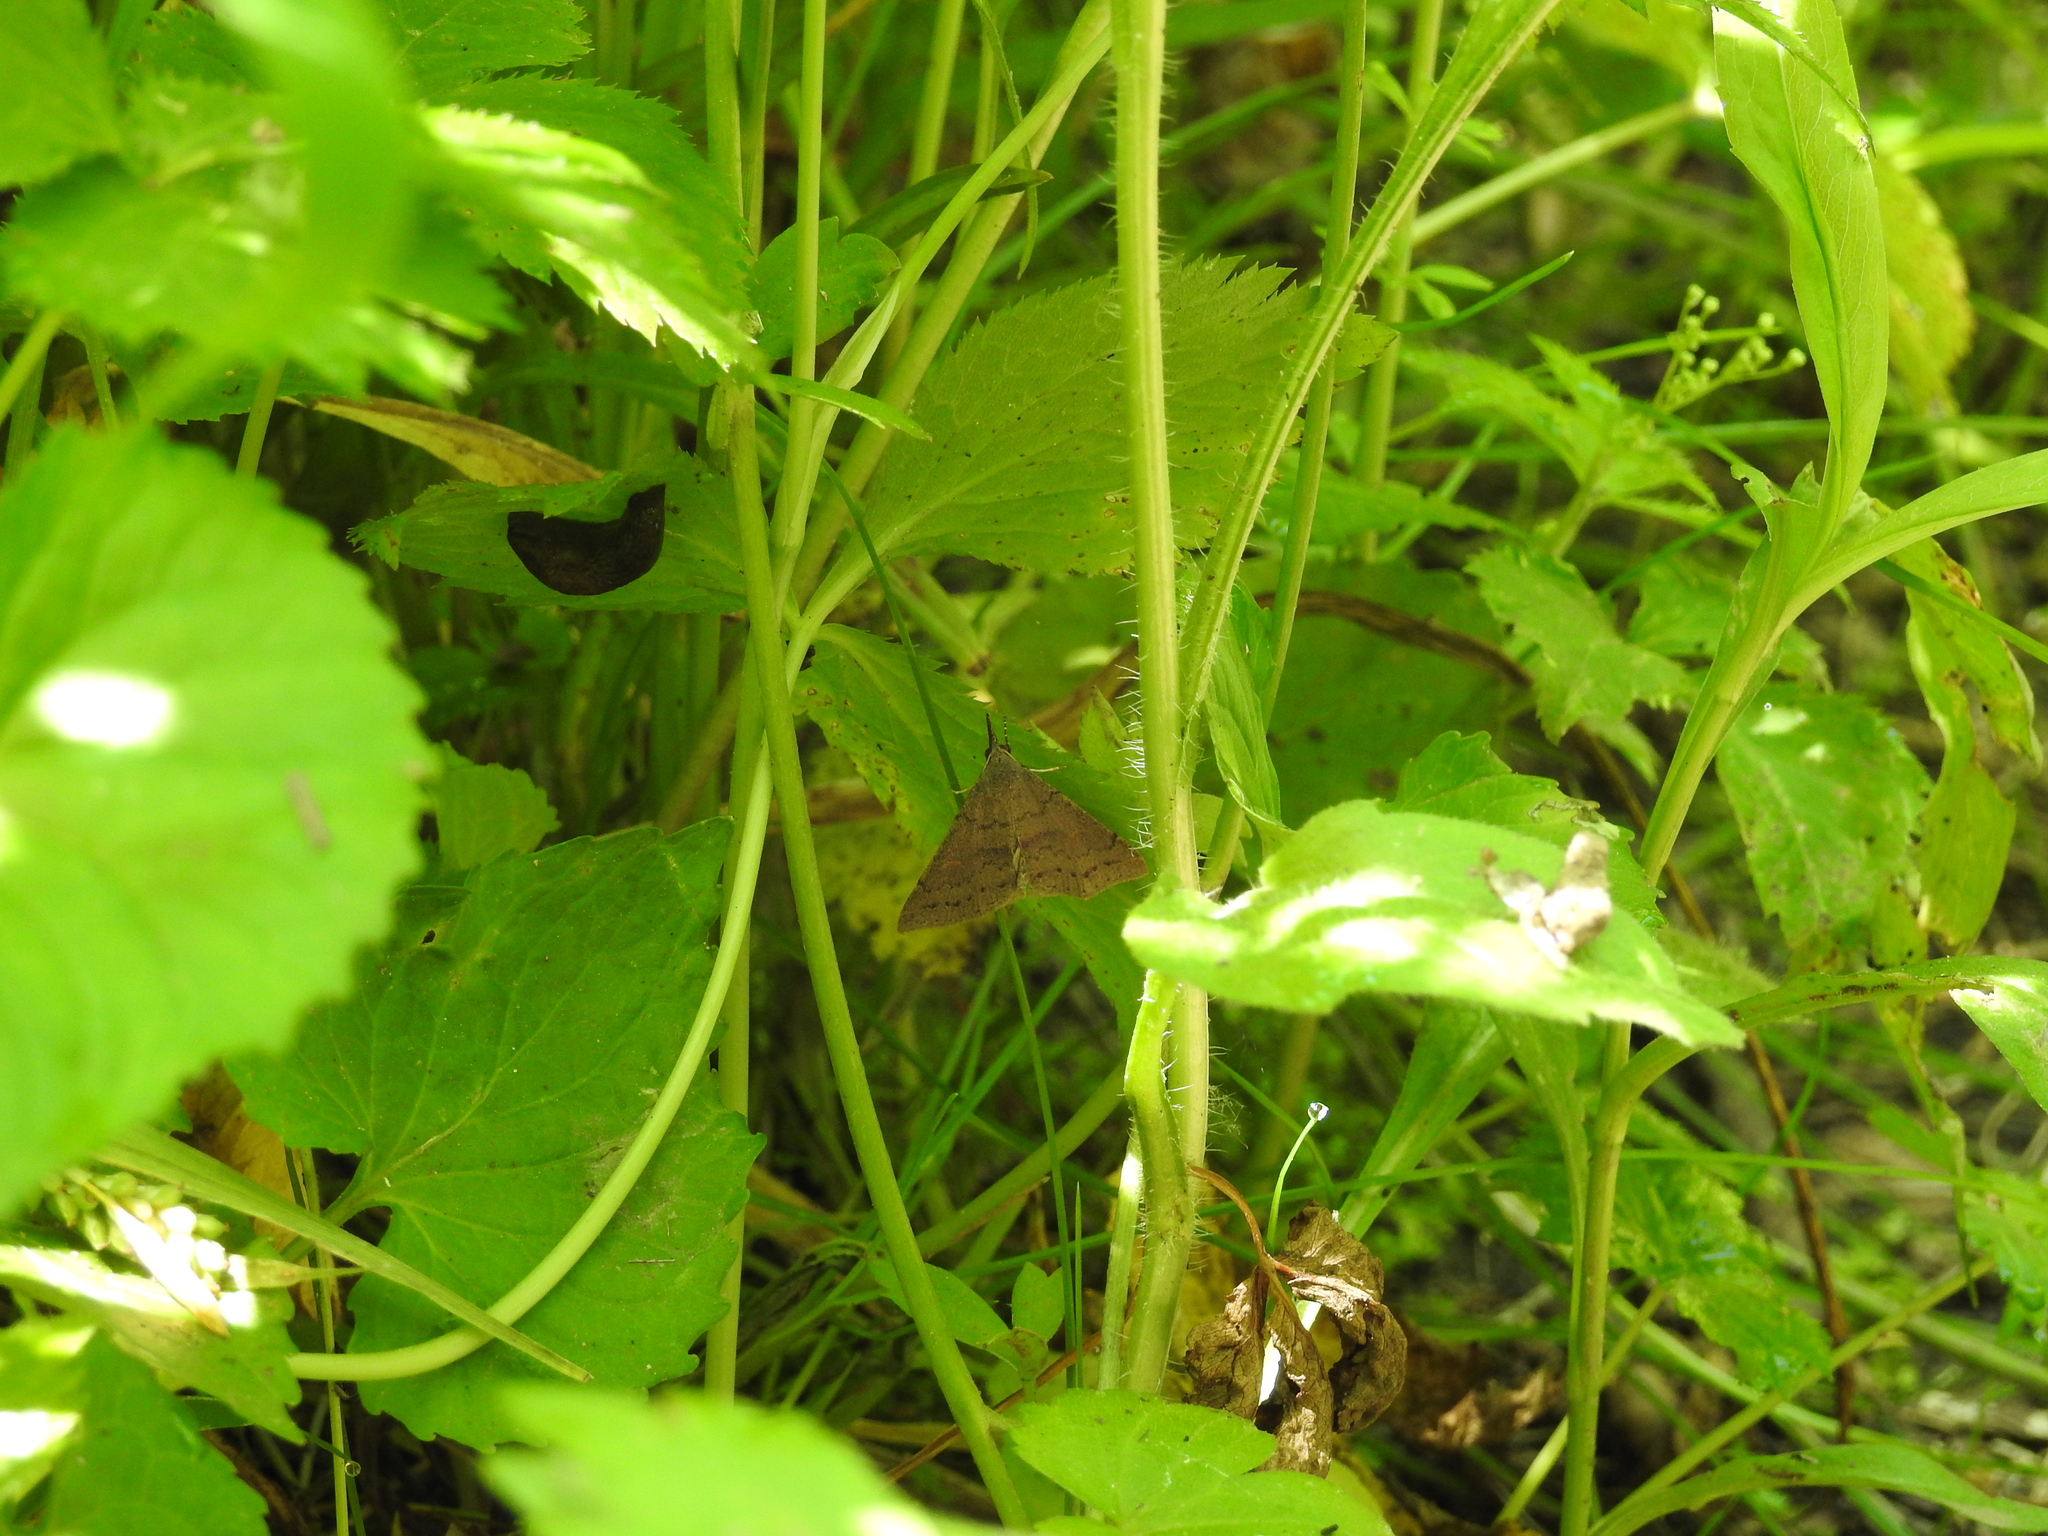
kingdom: Animalia
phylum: Arthropoda
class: Insecta
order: Lepidoptera
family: Erebidae
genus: Renia
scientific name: Renia adspergillus
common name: Speckled renia moth
